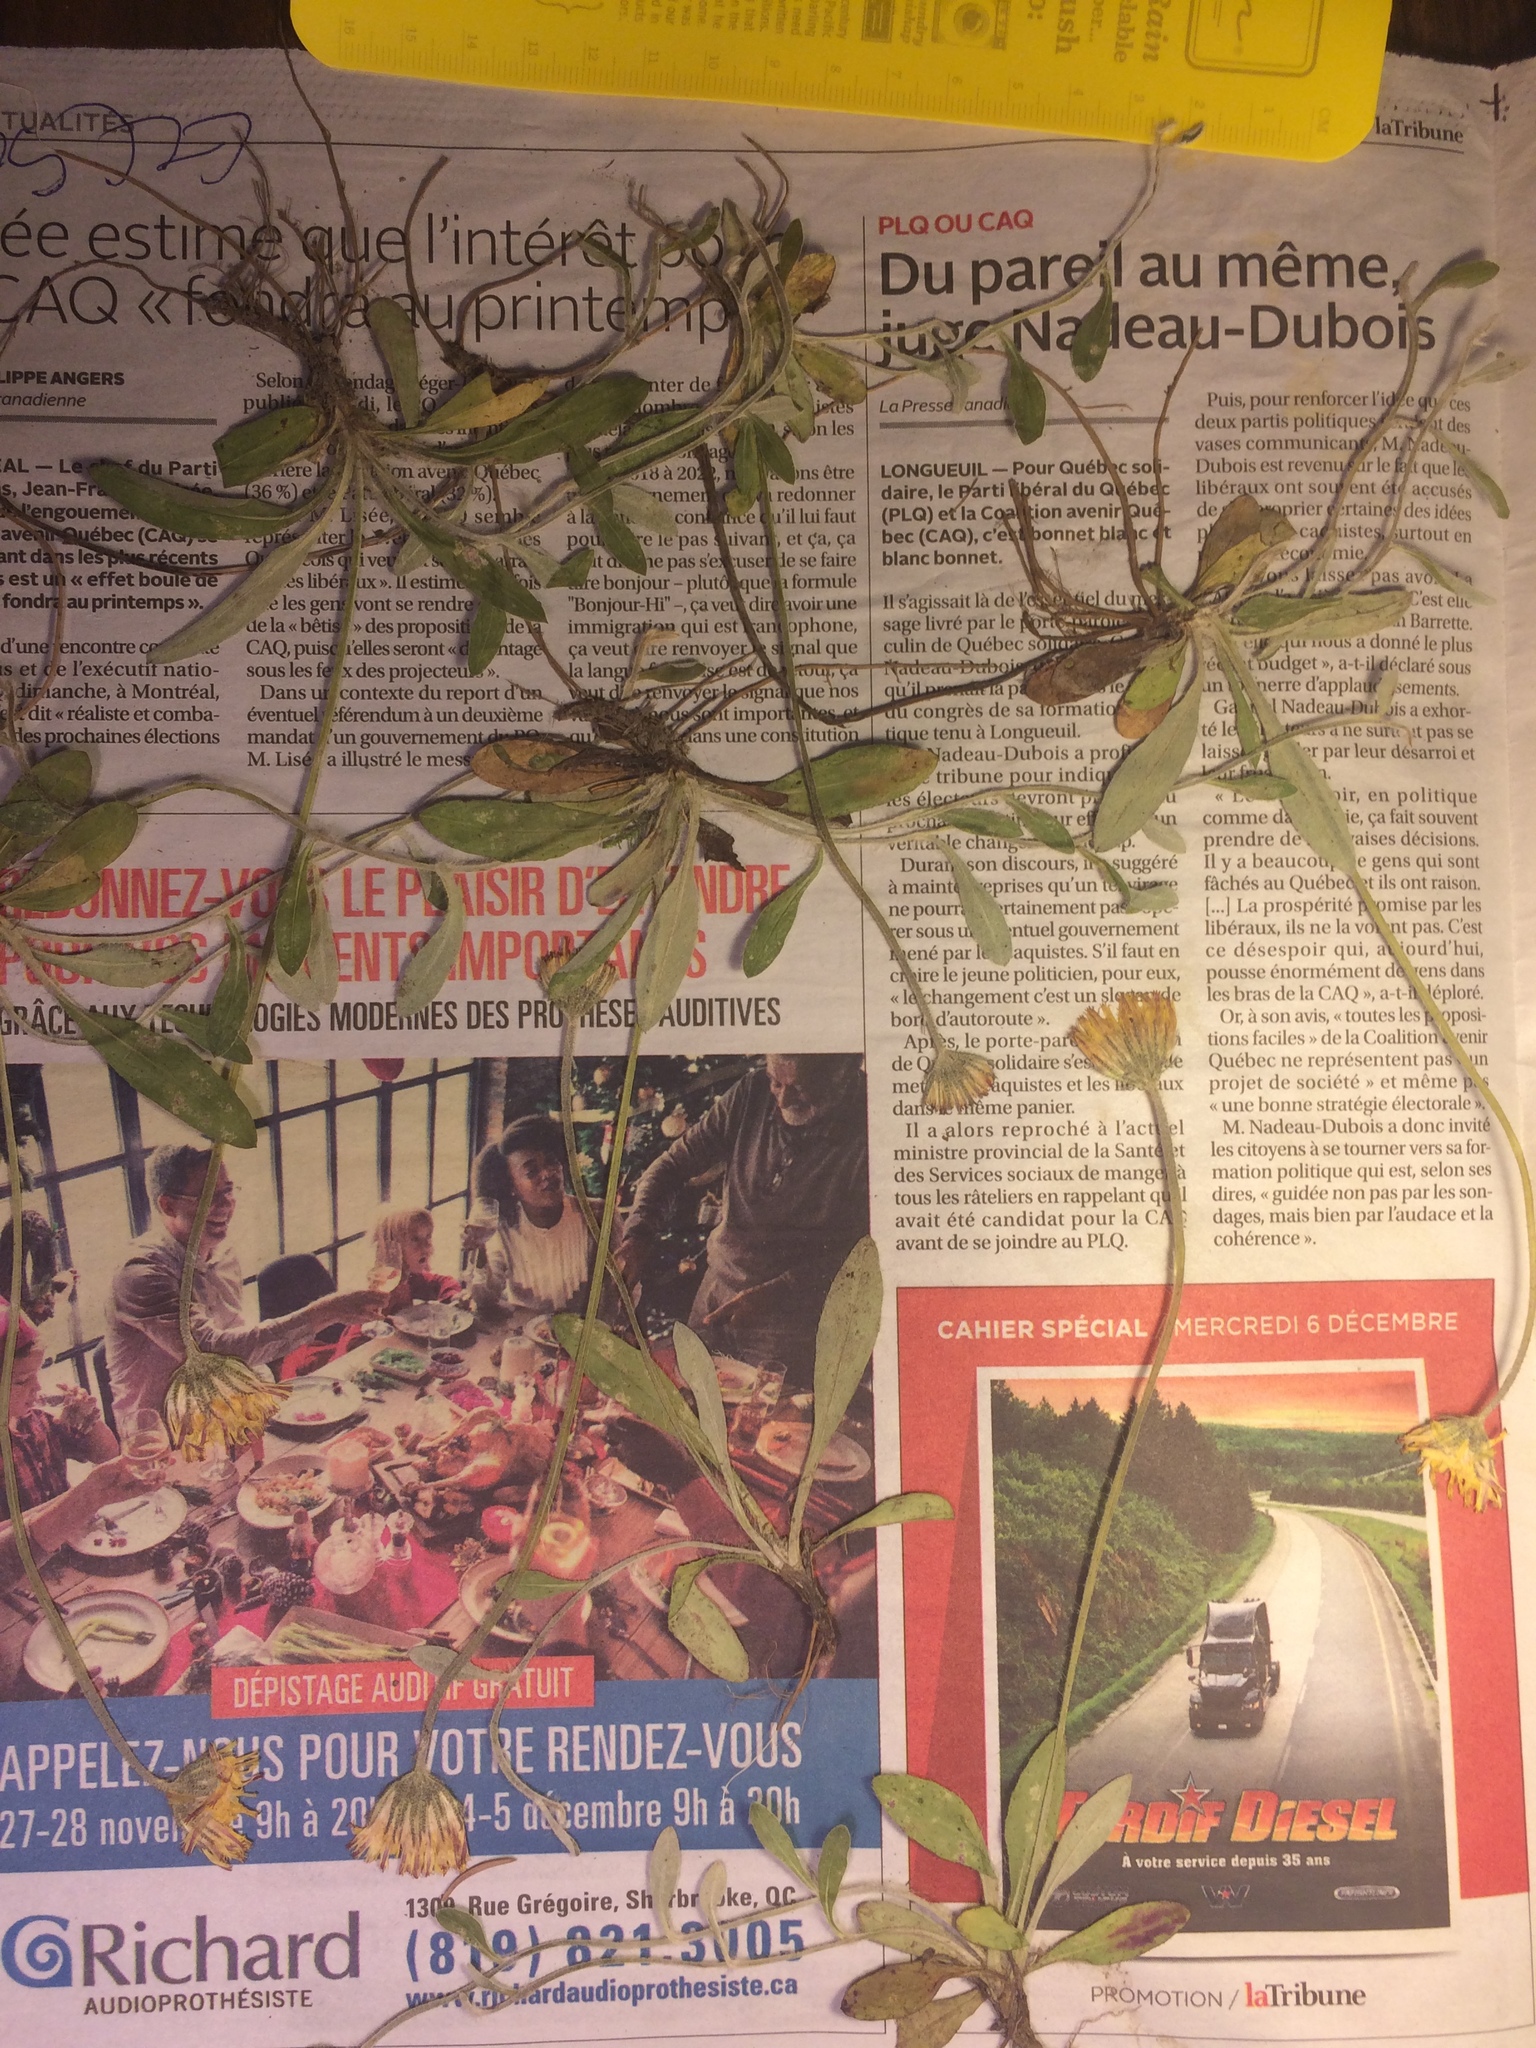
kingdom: Plantae
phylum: Tracheophyta
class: Magnoliopsida
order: Asterales
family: Asteraceae
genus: Pilosella
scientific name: Pilosella officinarum
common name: Mouse-ear hawkweed
